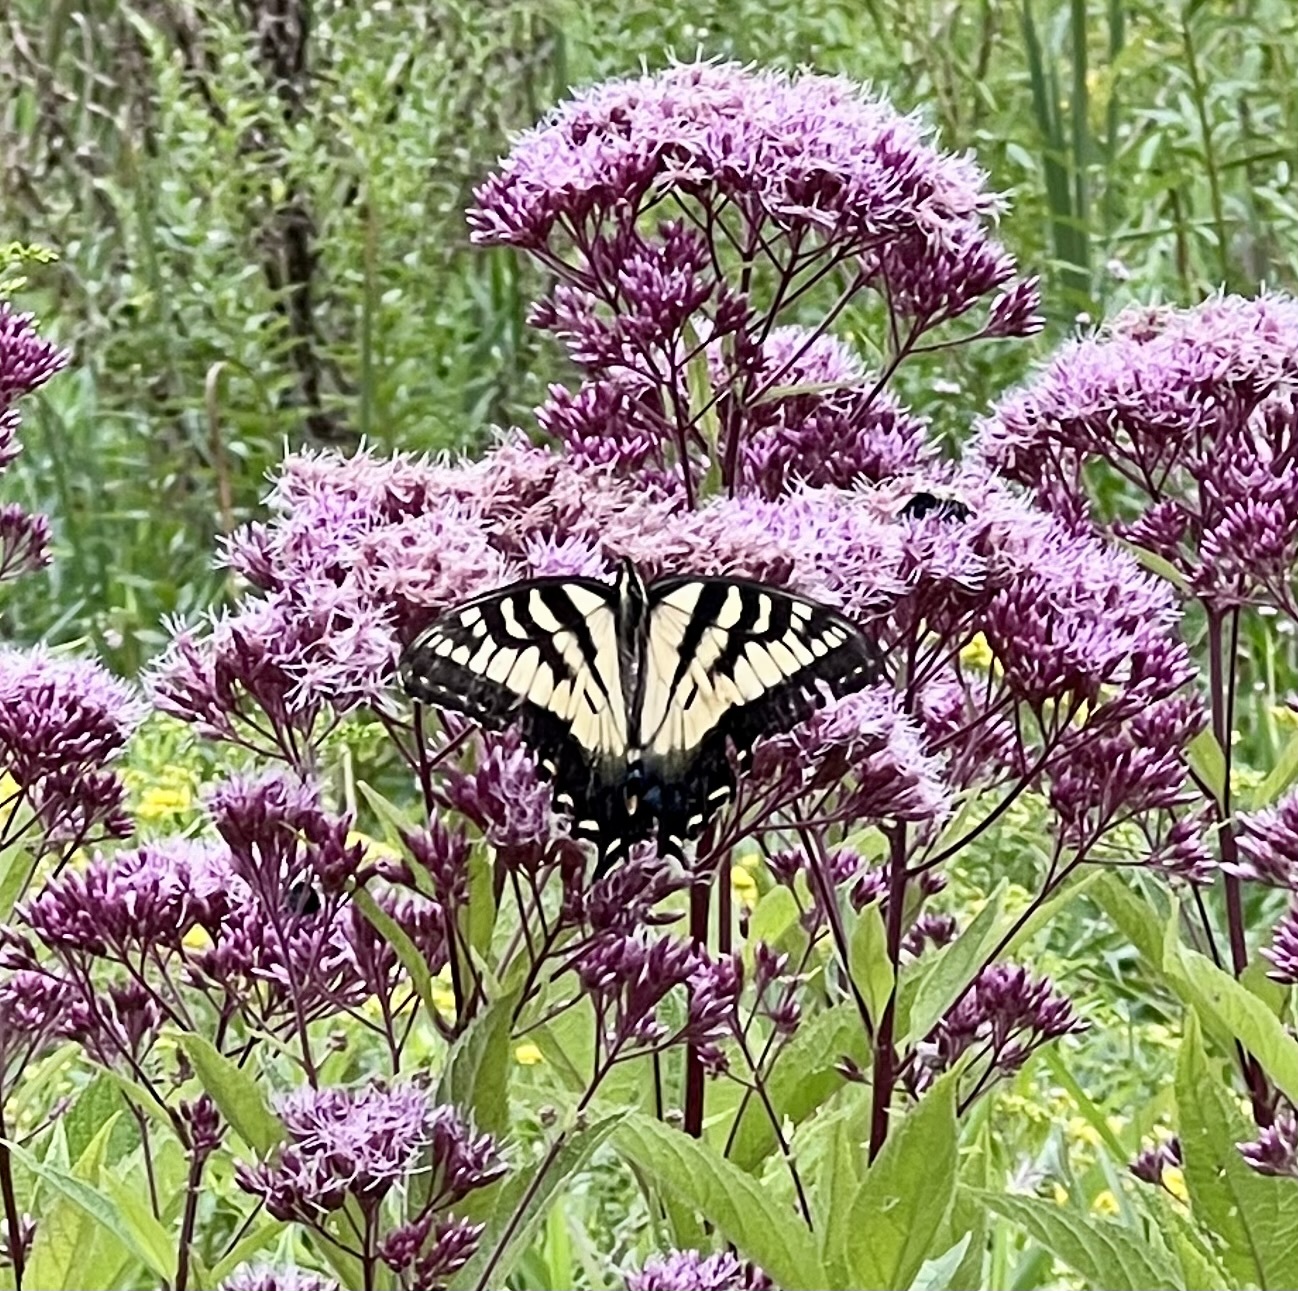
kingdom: Animalia
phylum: Arthropoda
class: Insecta
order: Lepidoptera
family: Papilionidae
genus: Papilio
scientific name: Papilio glaucus
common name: Tiger swallowtail
